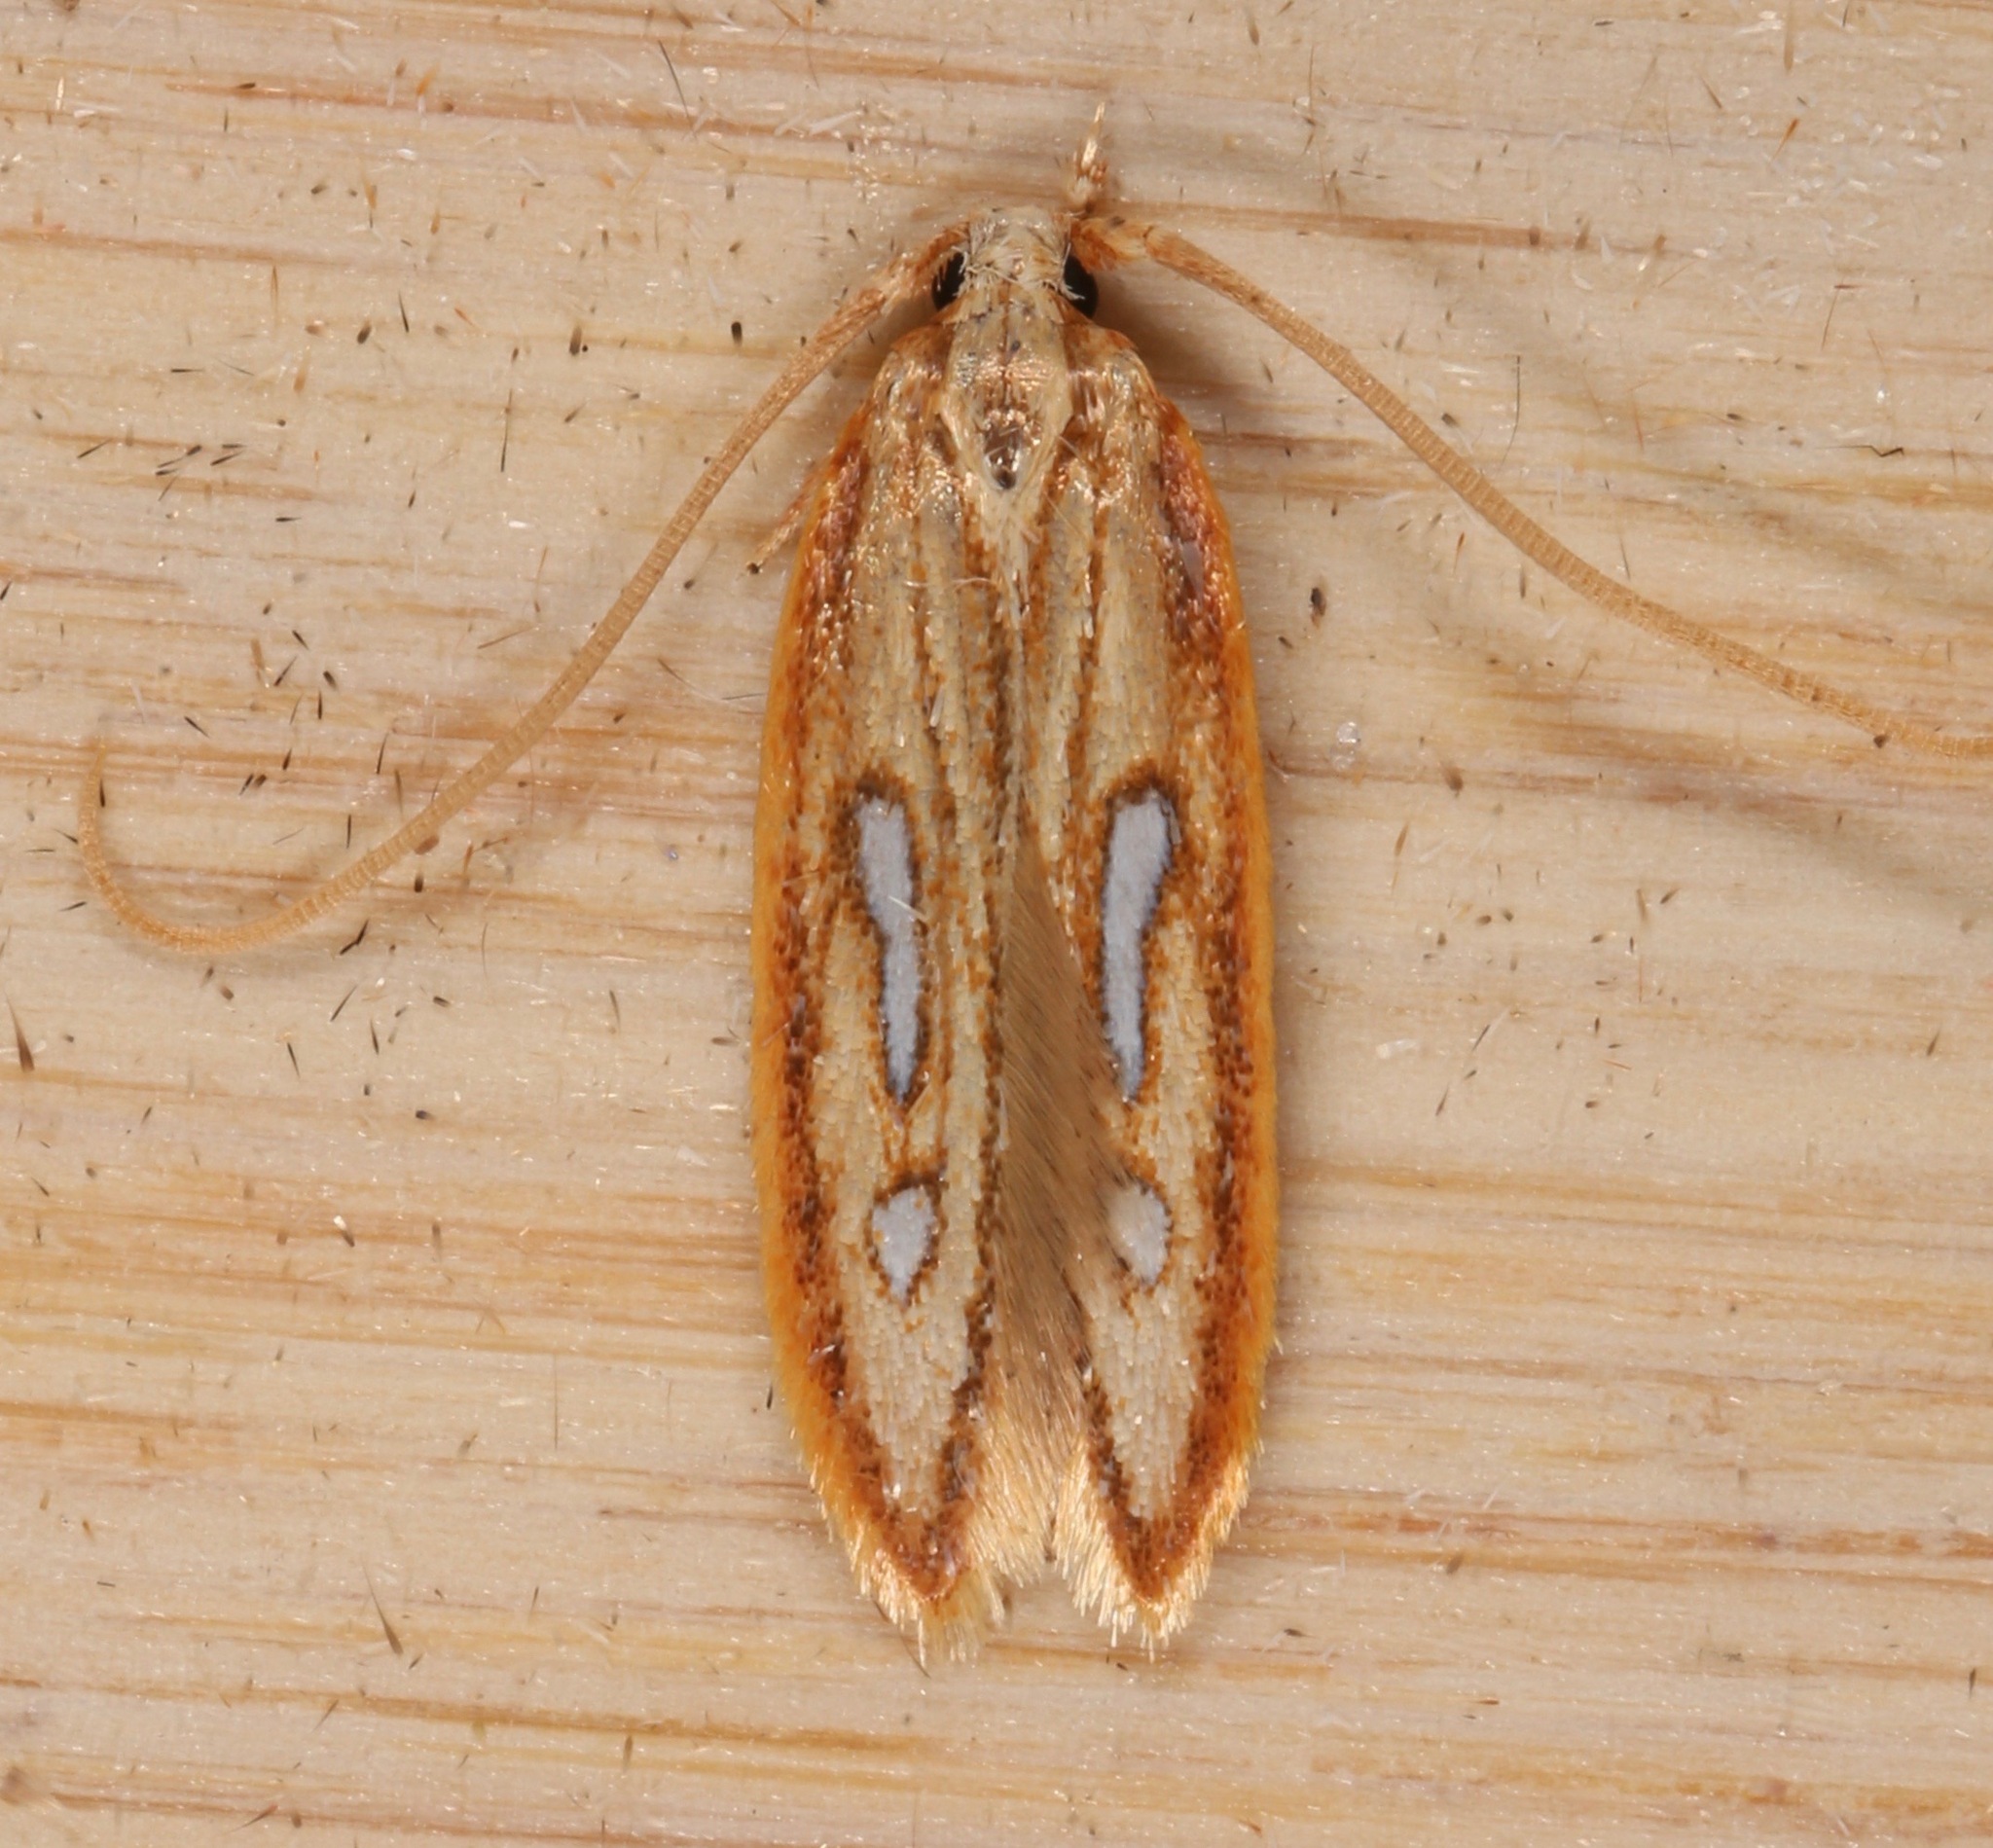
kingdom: Animalia
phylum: Arthropoda
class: Insecta
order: Lepidoptera
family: Coleophoridae
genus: Homaledra
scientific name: Homaledra heptathalama
